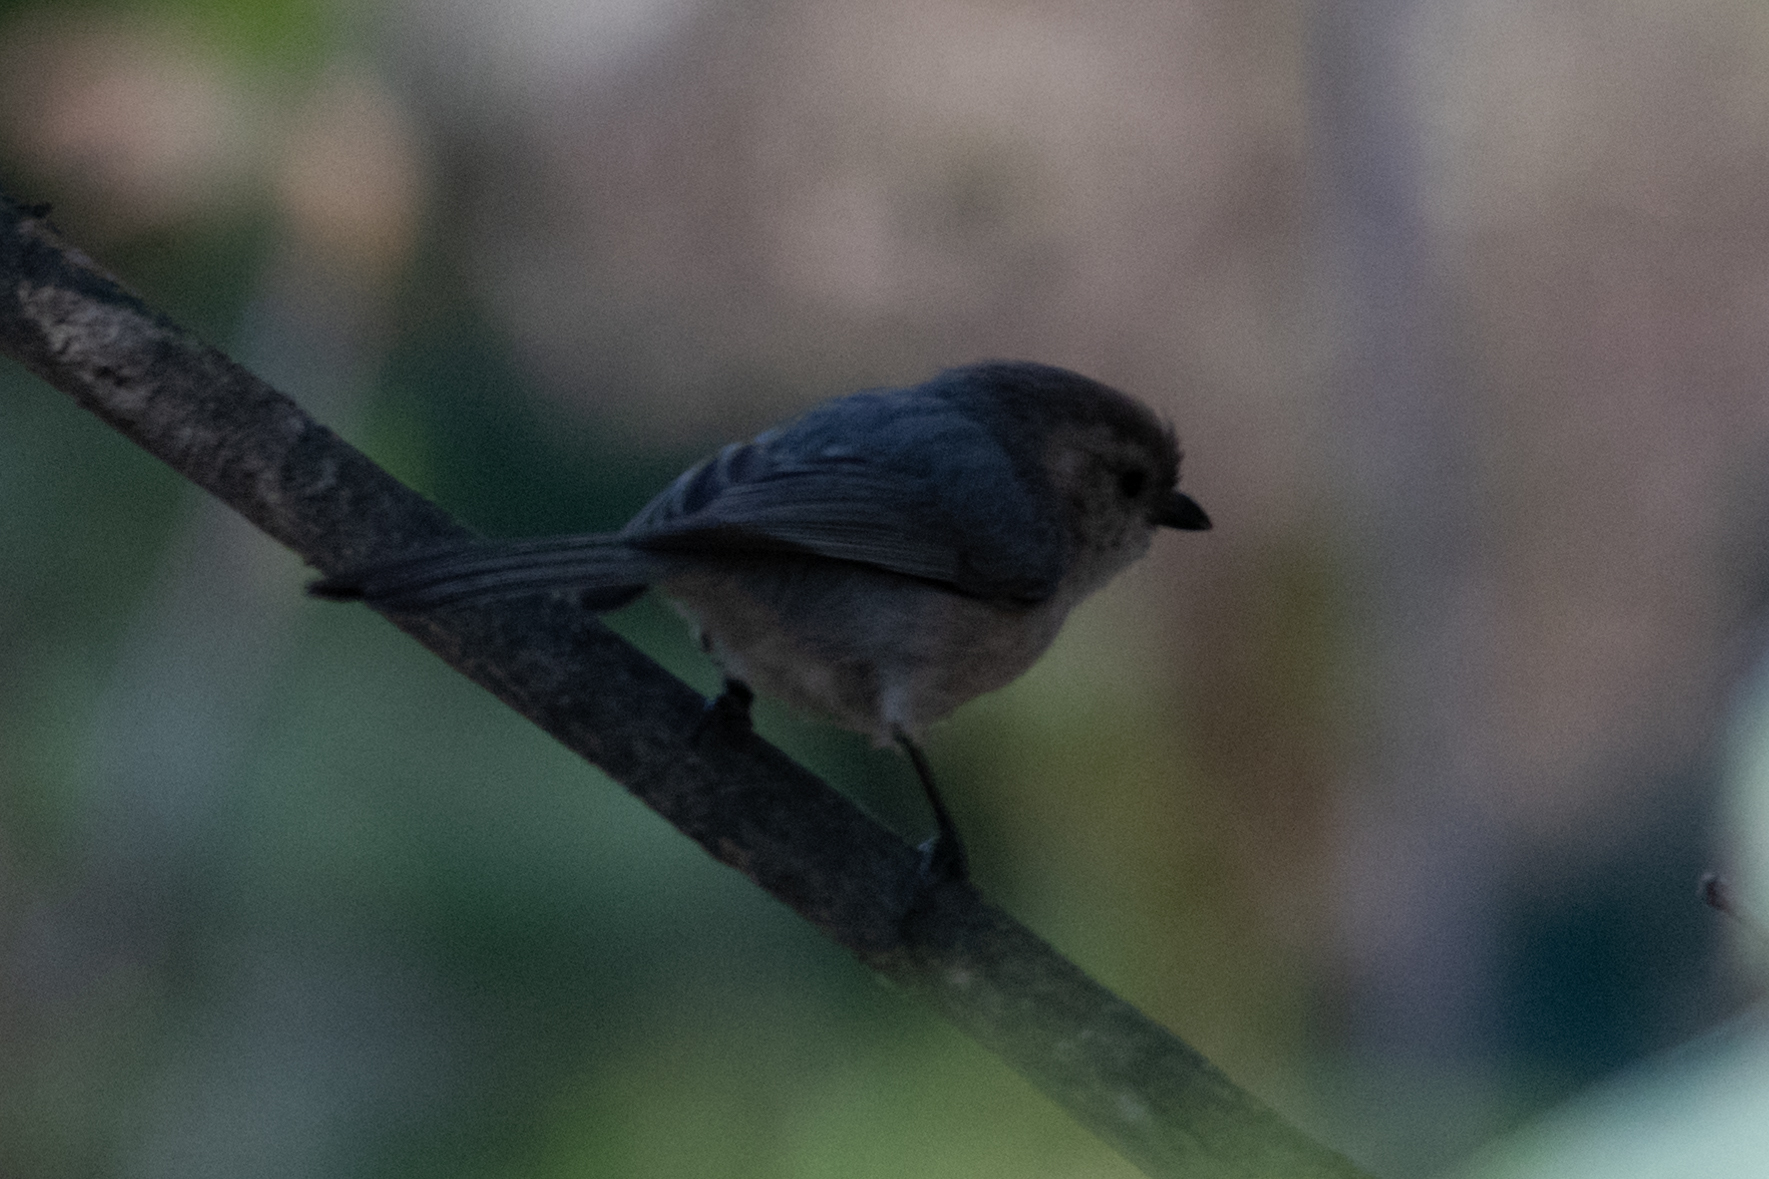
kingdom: Animalia
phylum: Chordata
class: Aves
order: Passeriformes
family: Aegithalidae
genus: Psaltriparus
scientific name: Psaltriparus minimus
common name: American bushtit
